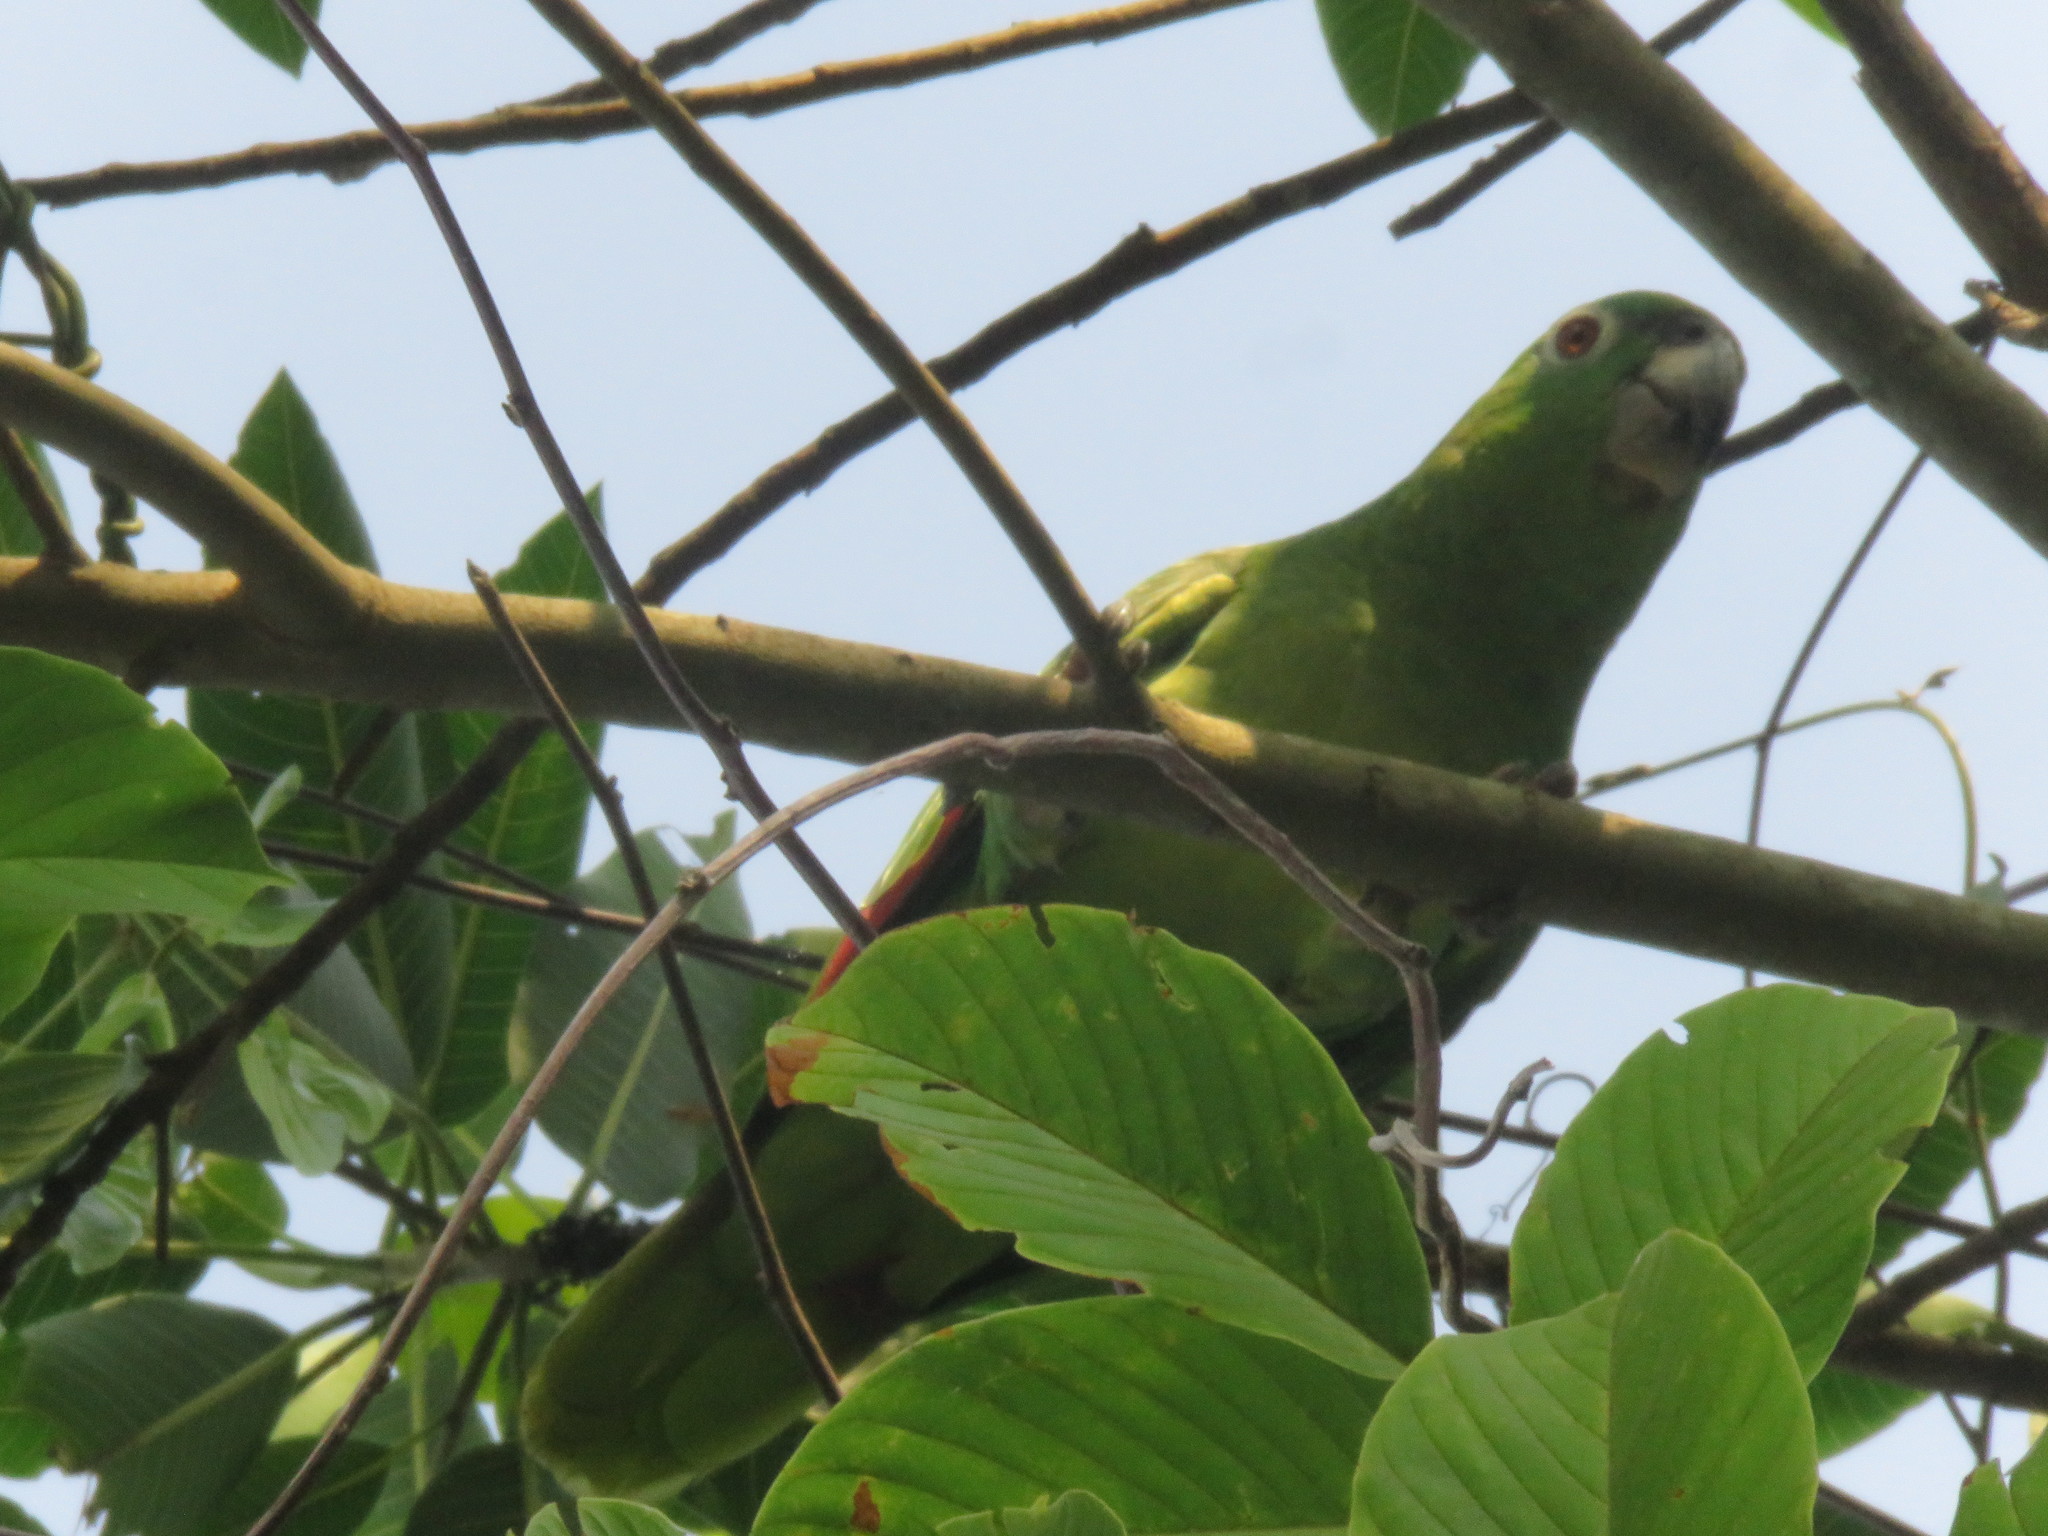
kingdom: Animalia
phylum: Chordata
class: Aves
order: Psittaciformes
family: Psittacidae
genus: Amazona
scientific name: Amazona ochrocephala
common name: Yellow-crowned amazon
